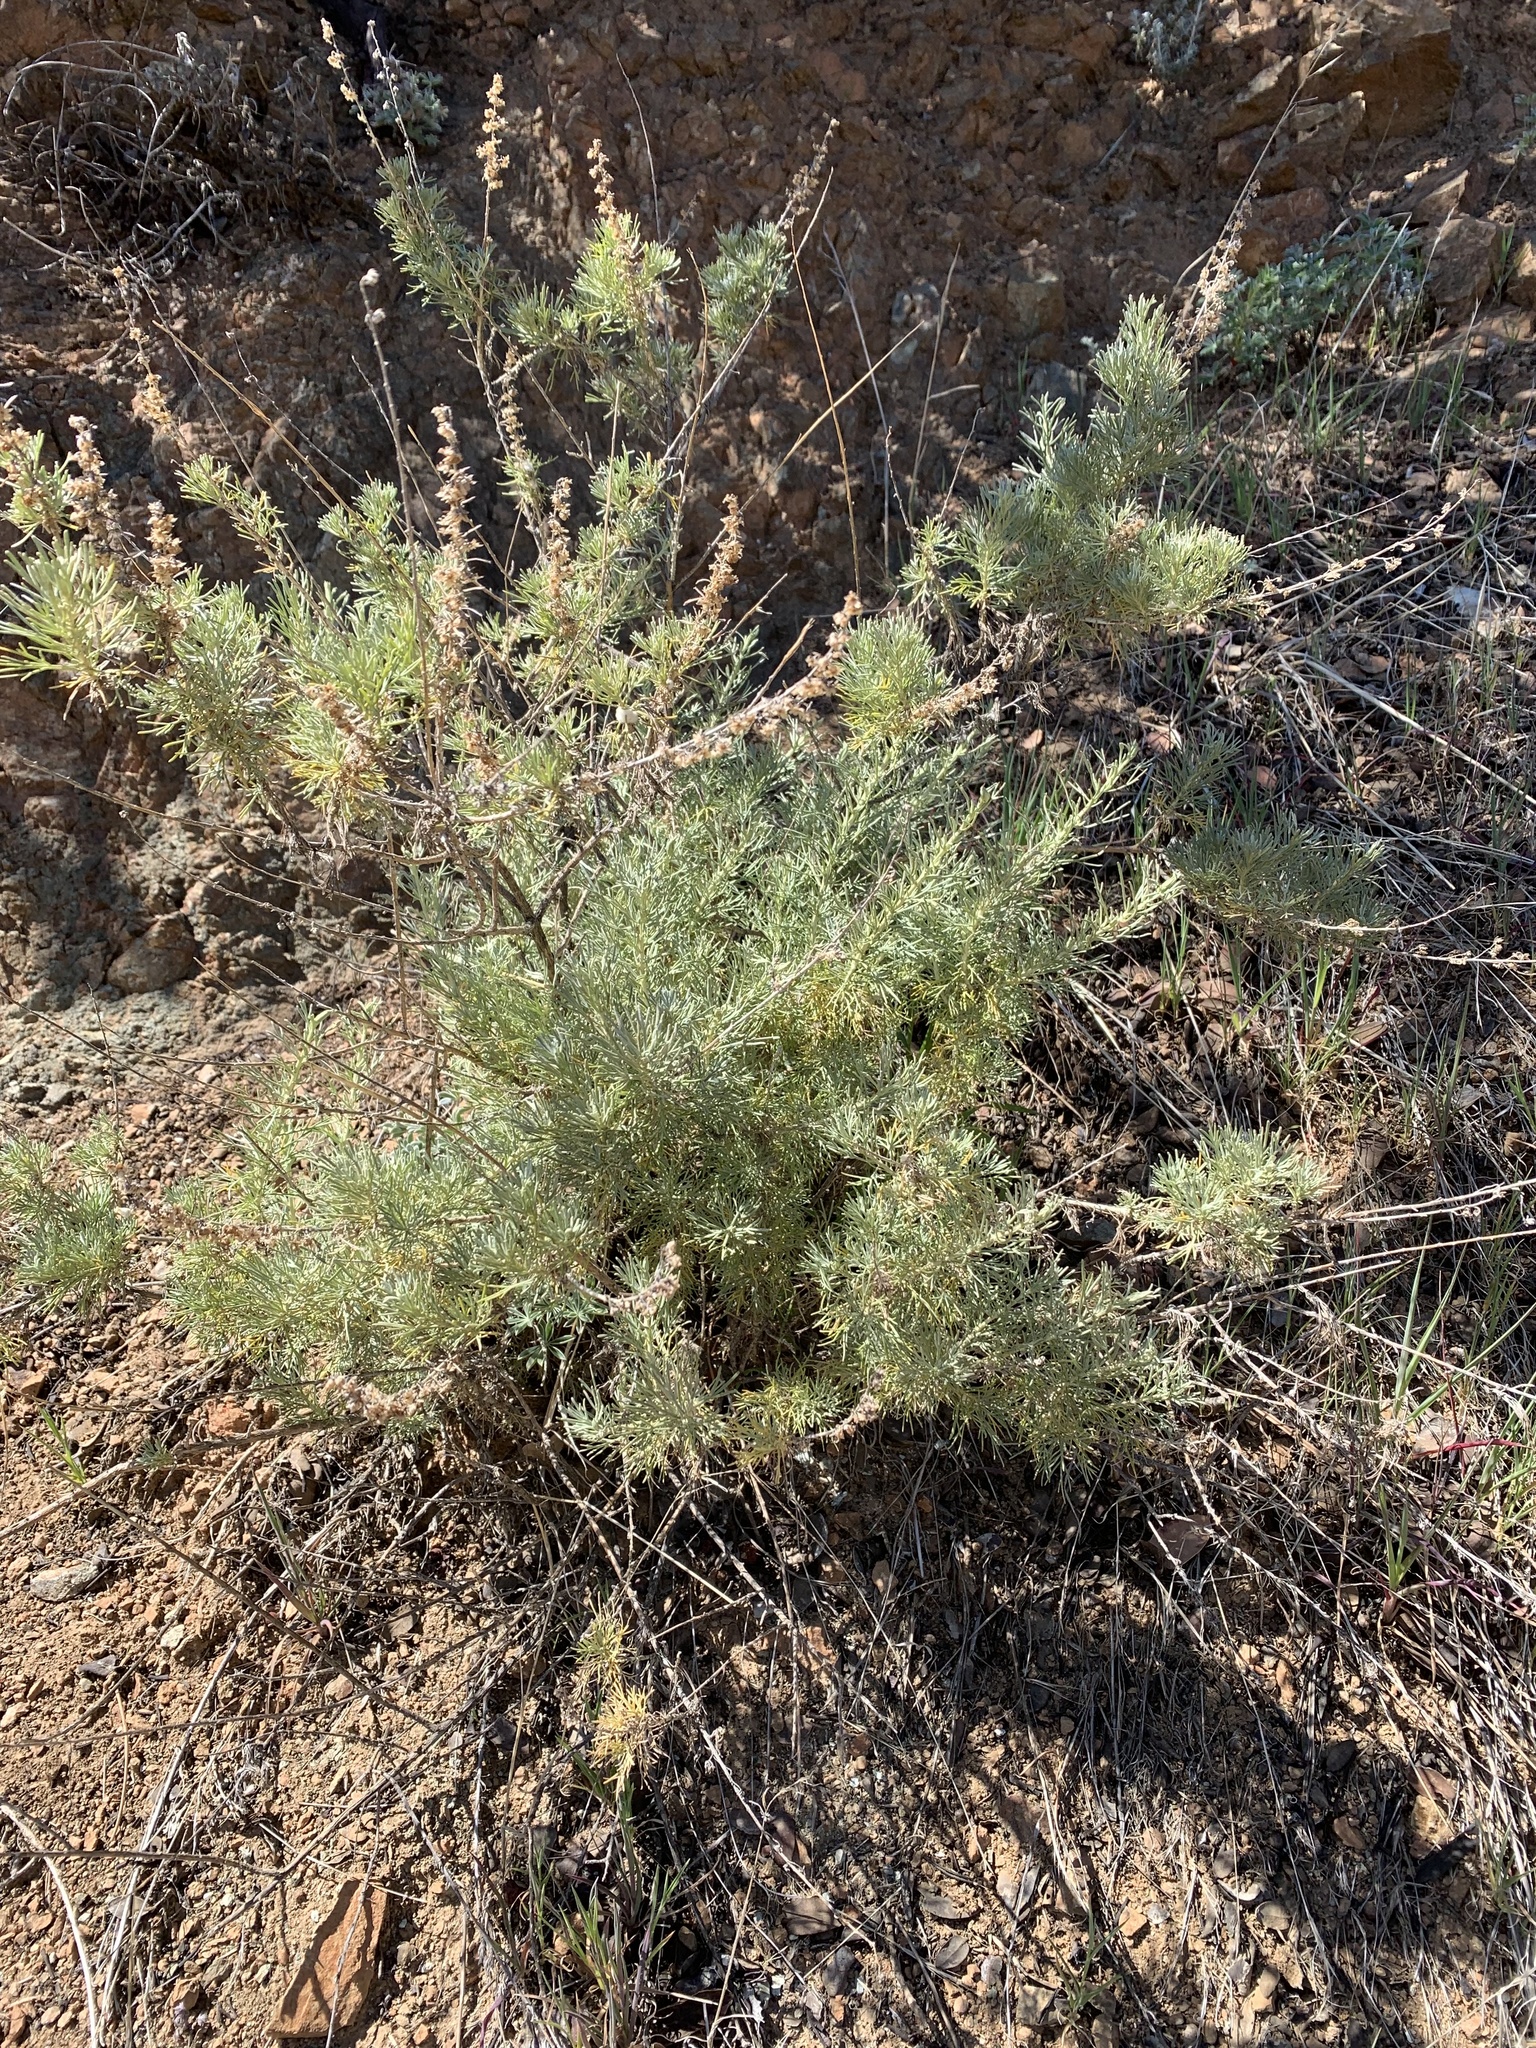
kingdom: Plantae
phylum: Tracheophyta
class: Magnoliopsida
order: Asterales
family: Asteraceae
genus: Artemisia
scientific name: Artemisia californica
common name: California sagebrush
